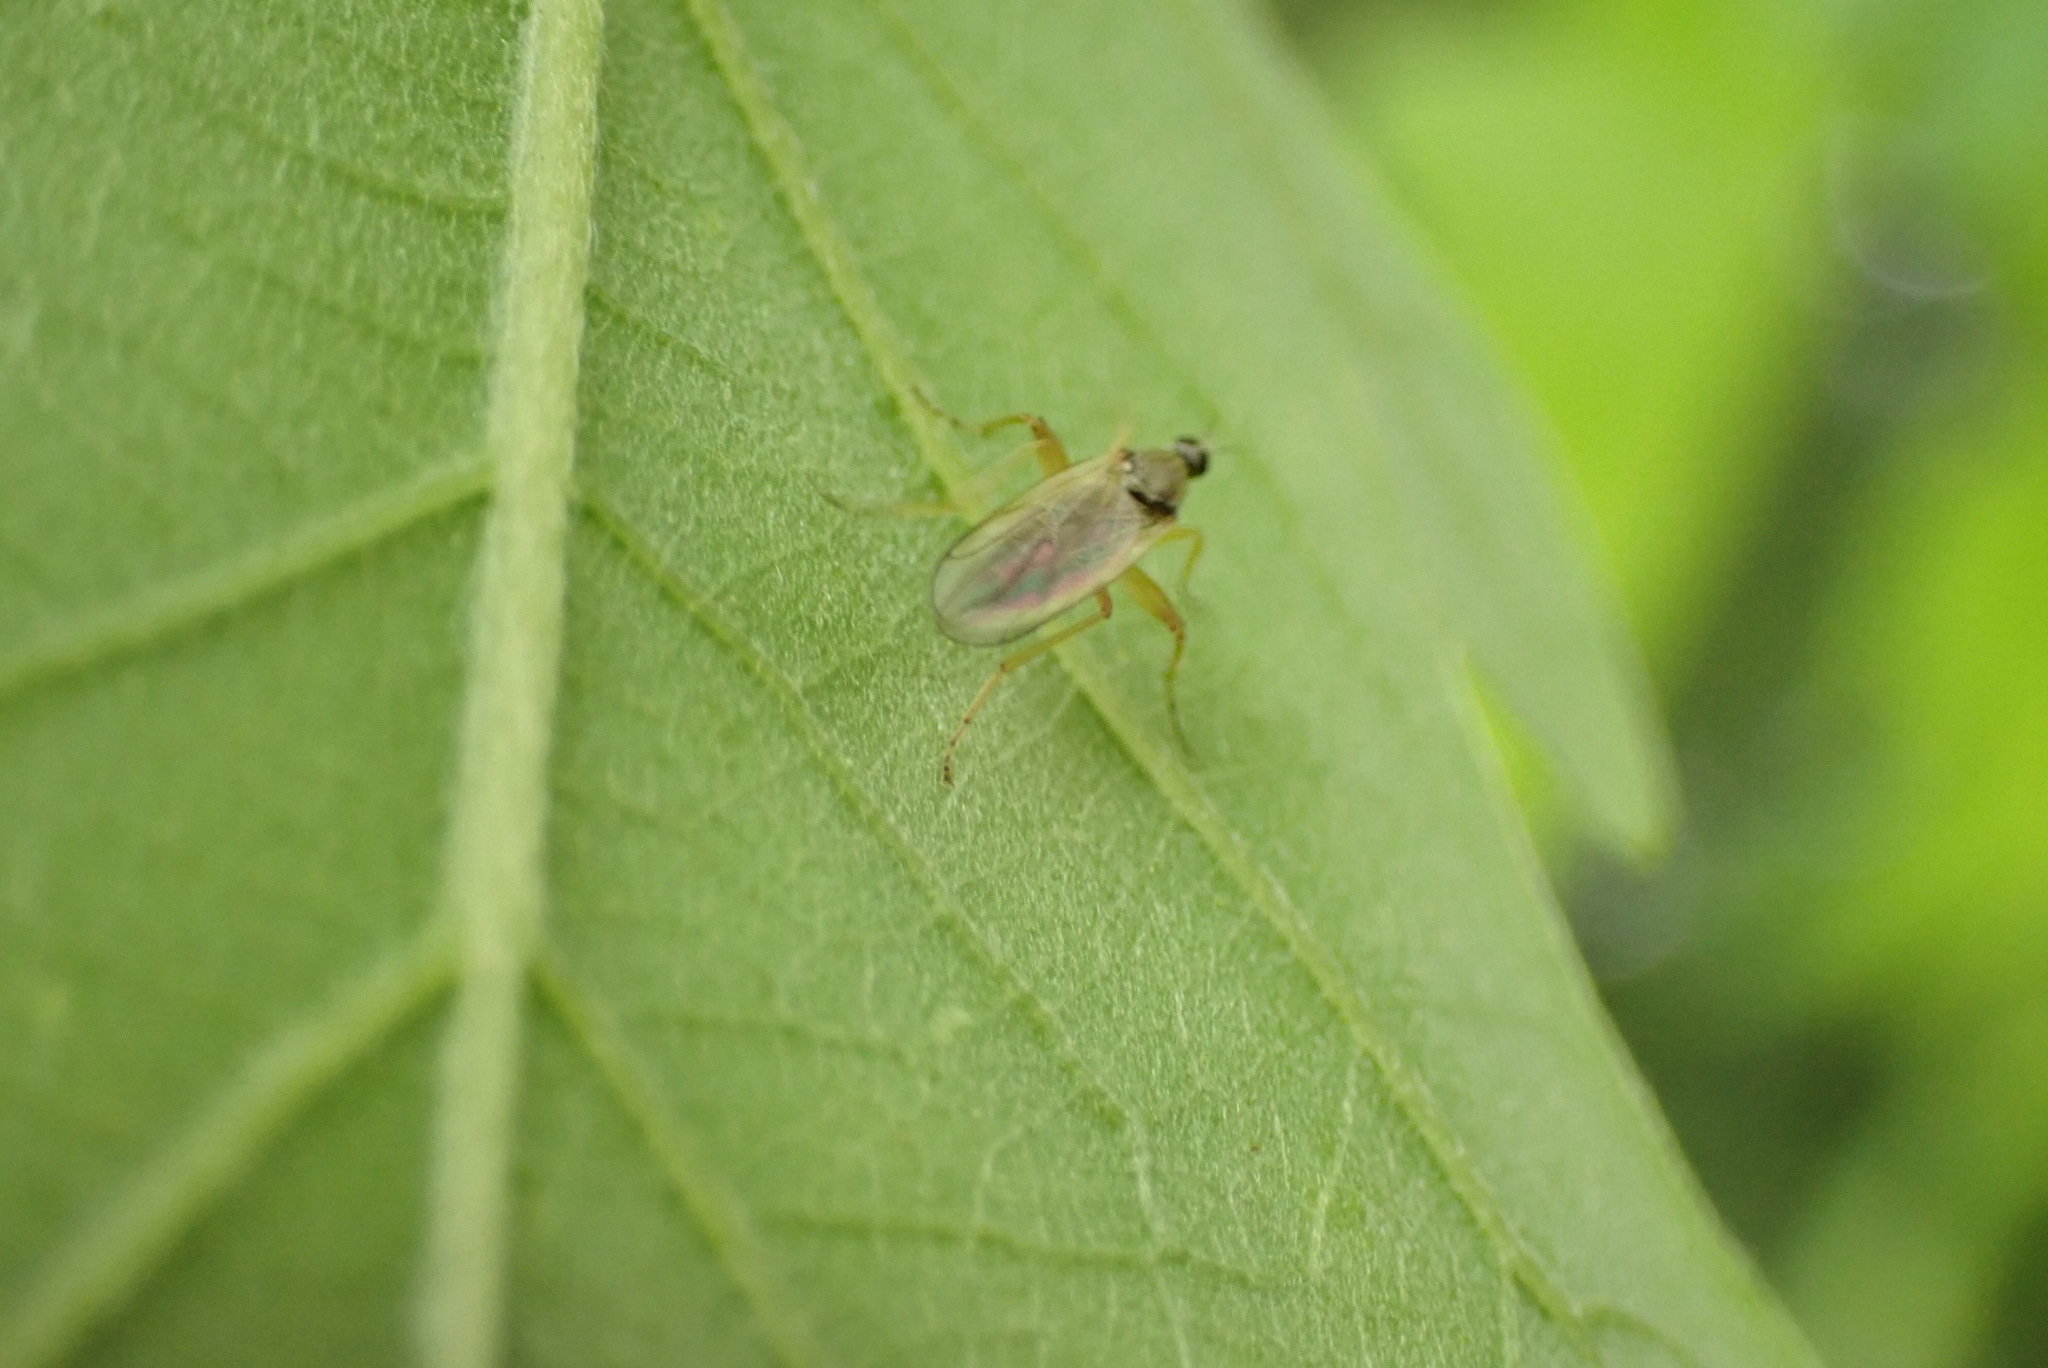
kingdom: Animalia
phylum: Arthropoda
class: Insecta
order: Diptera
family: Hybotidae
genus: Platypalpus
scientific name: Platypalpus
